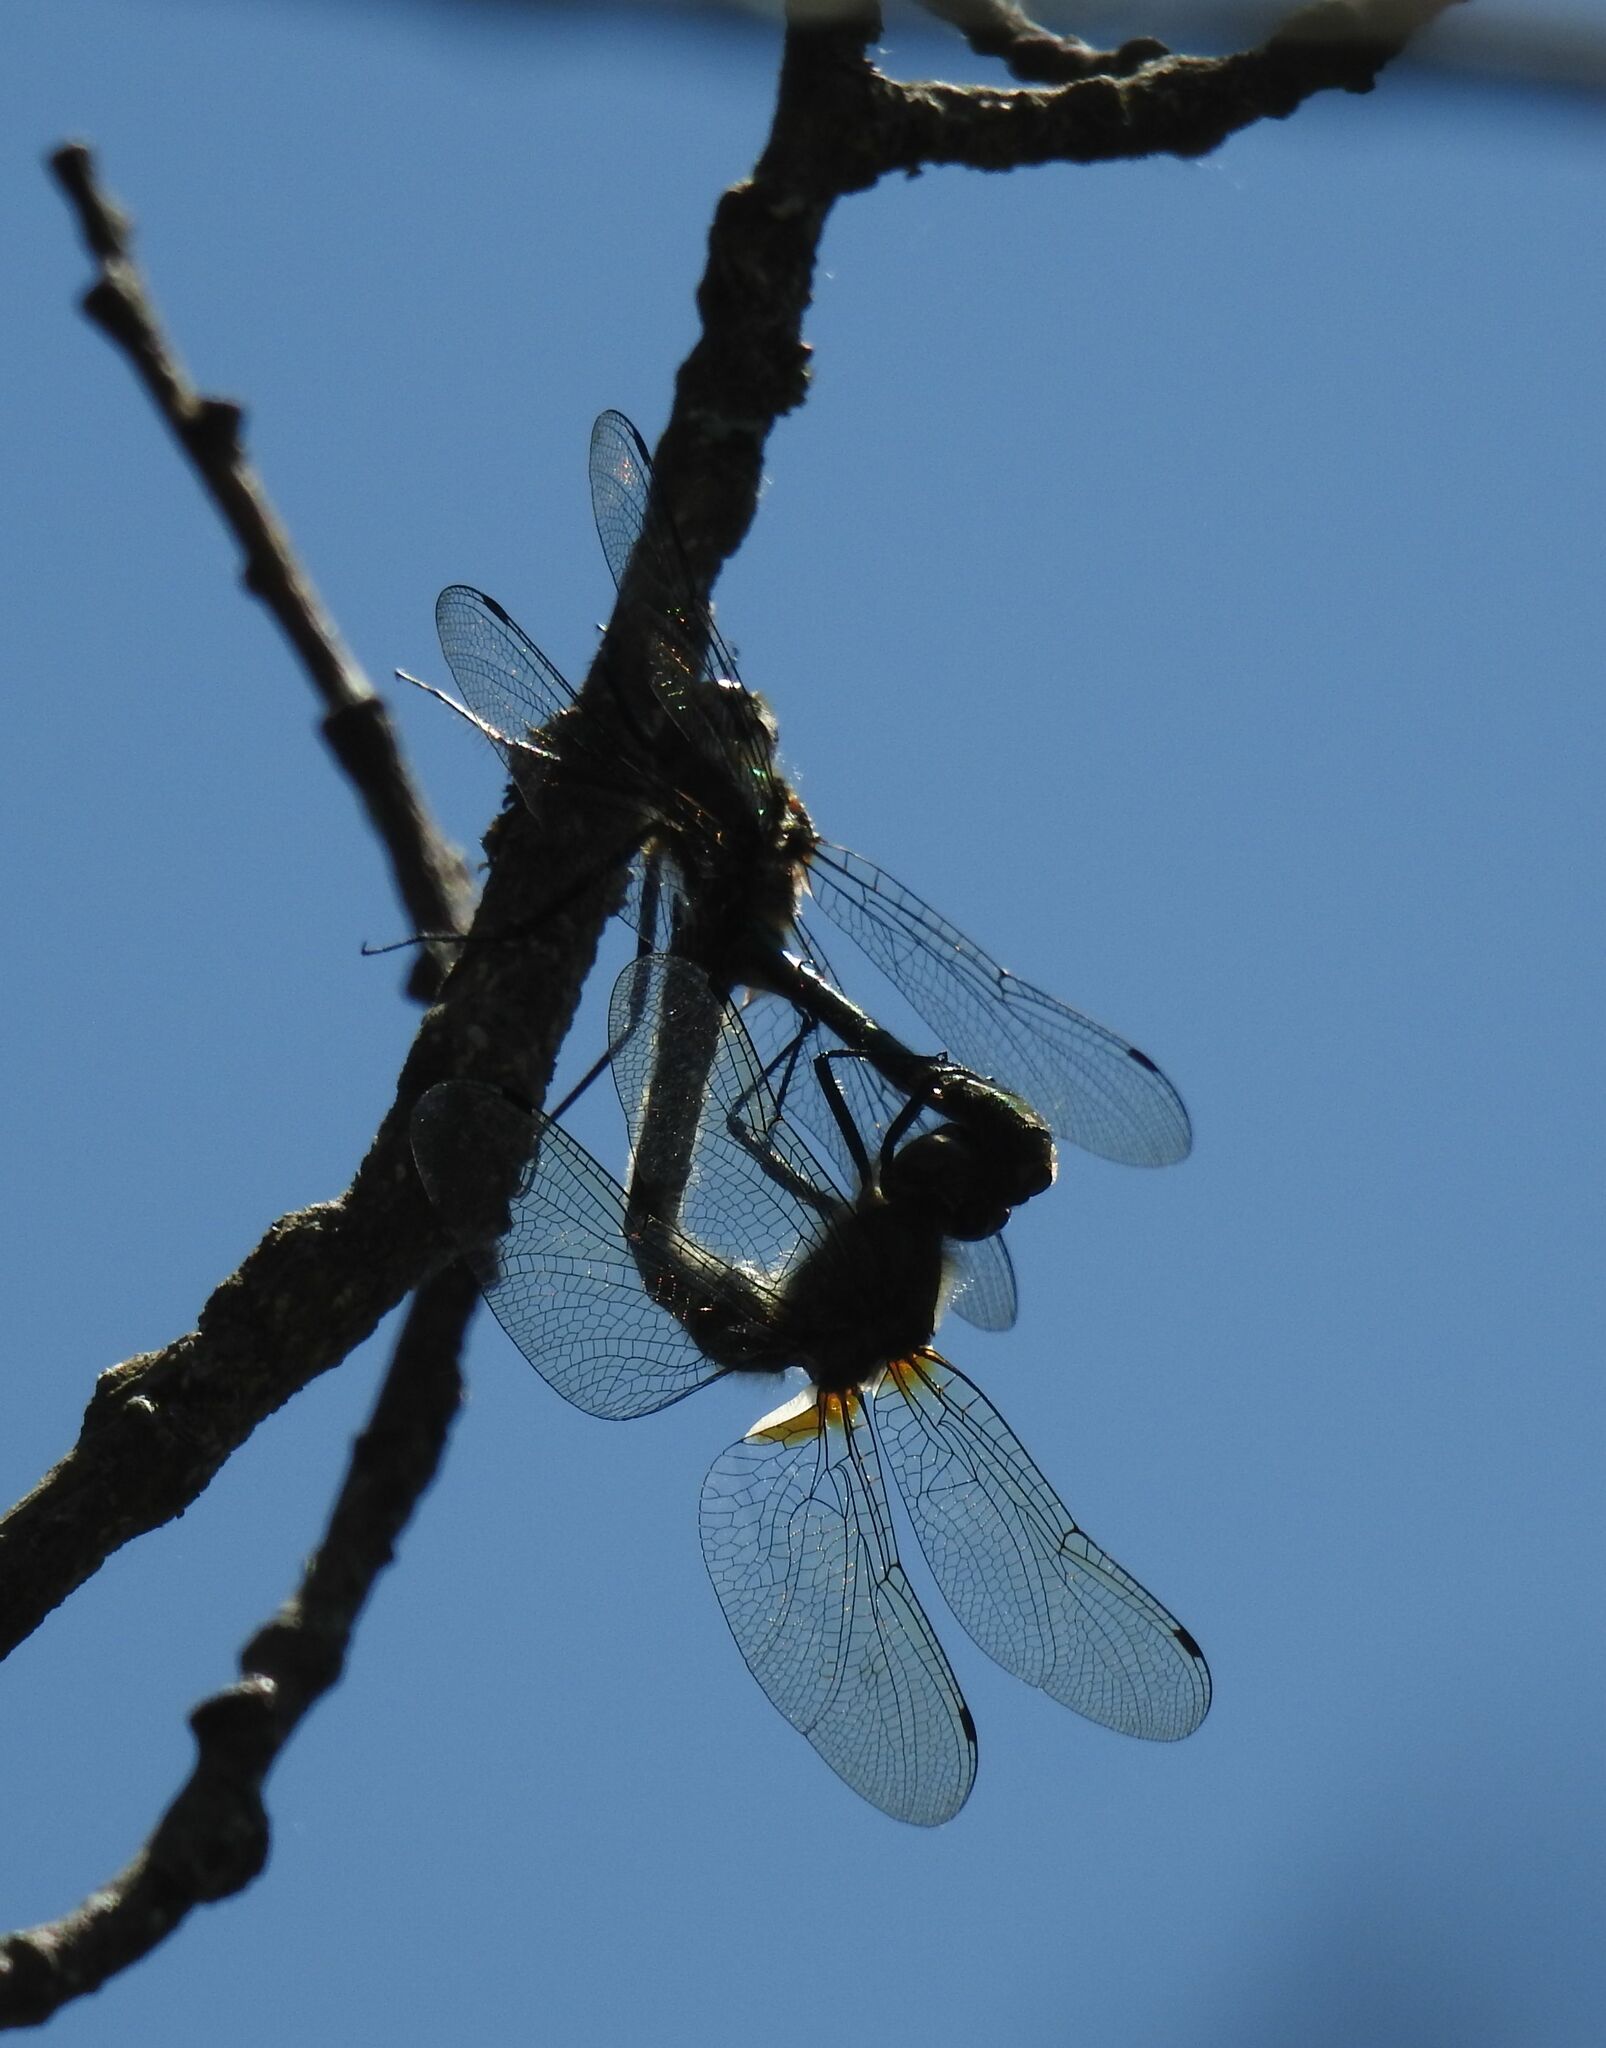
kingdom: Animalia
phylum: Arthropoda
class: Insecta
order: Odonata
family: Corduliidae
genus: Cordulia
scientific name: Cordulia aenea
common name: Downy emerald
